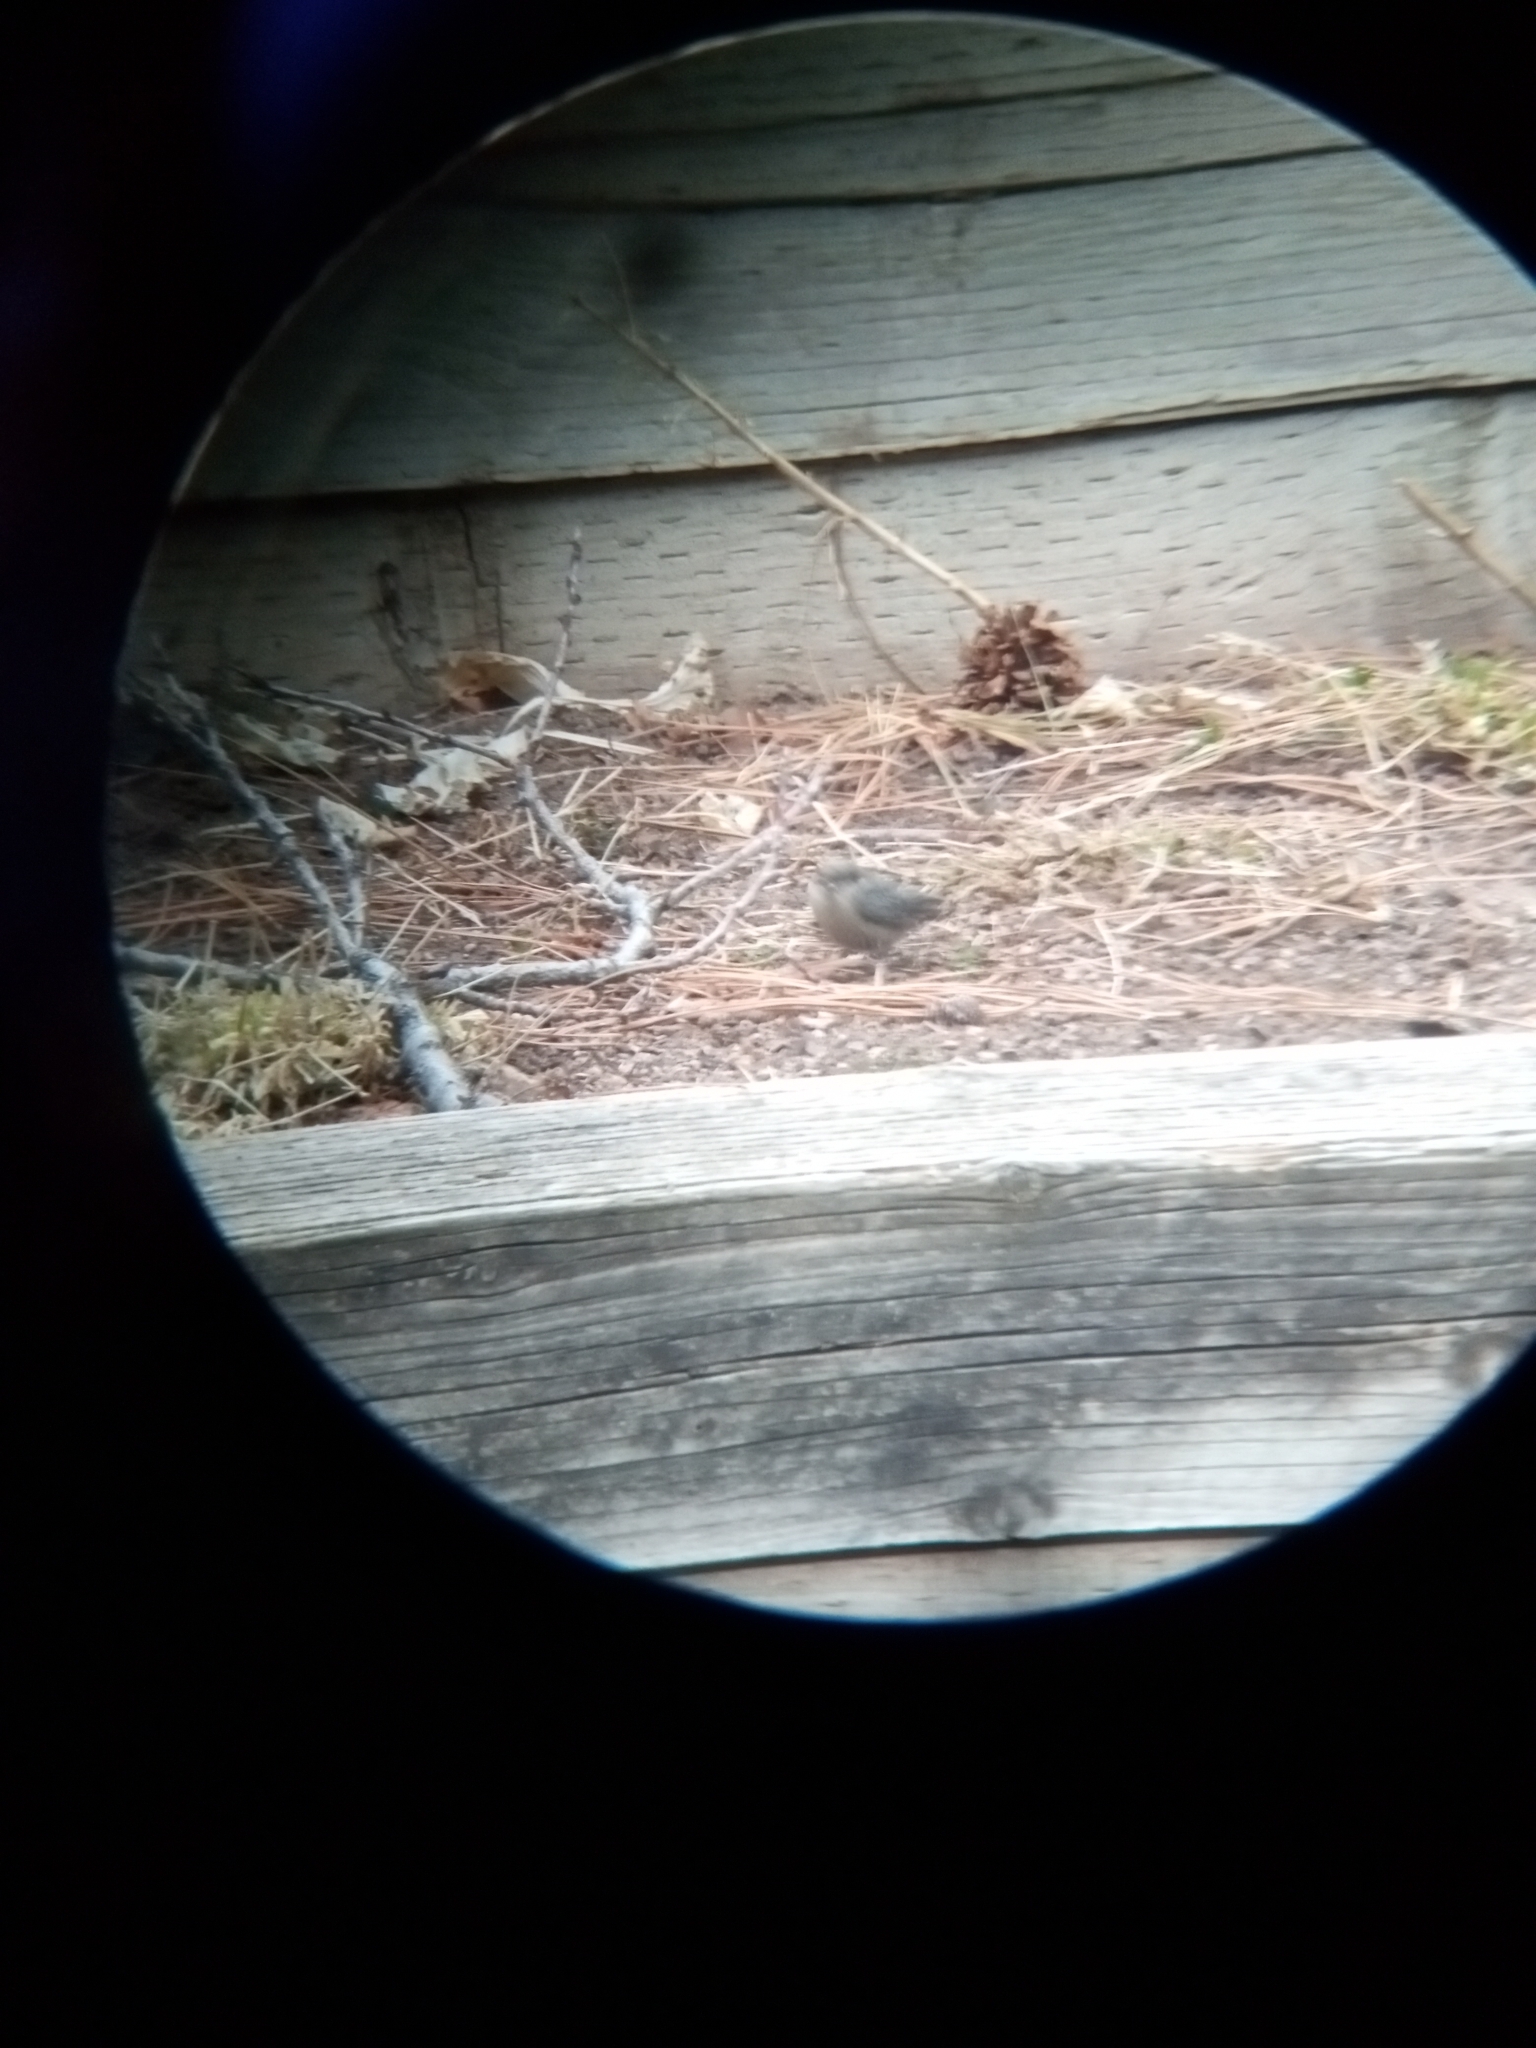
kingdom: Animalia
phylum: Chordata
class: Aves
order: Passeriformes
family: Sittidae
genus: Sitta
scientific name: Sitta pygmaea
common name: Pygmy nuthatch
